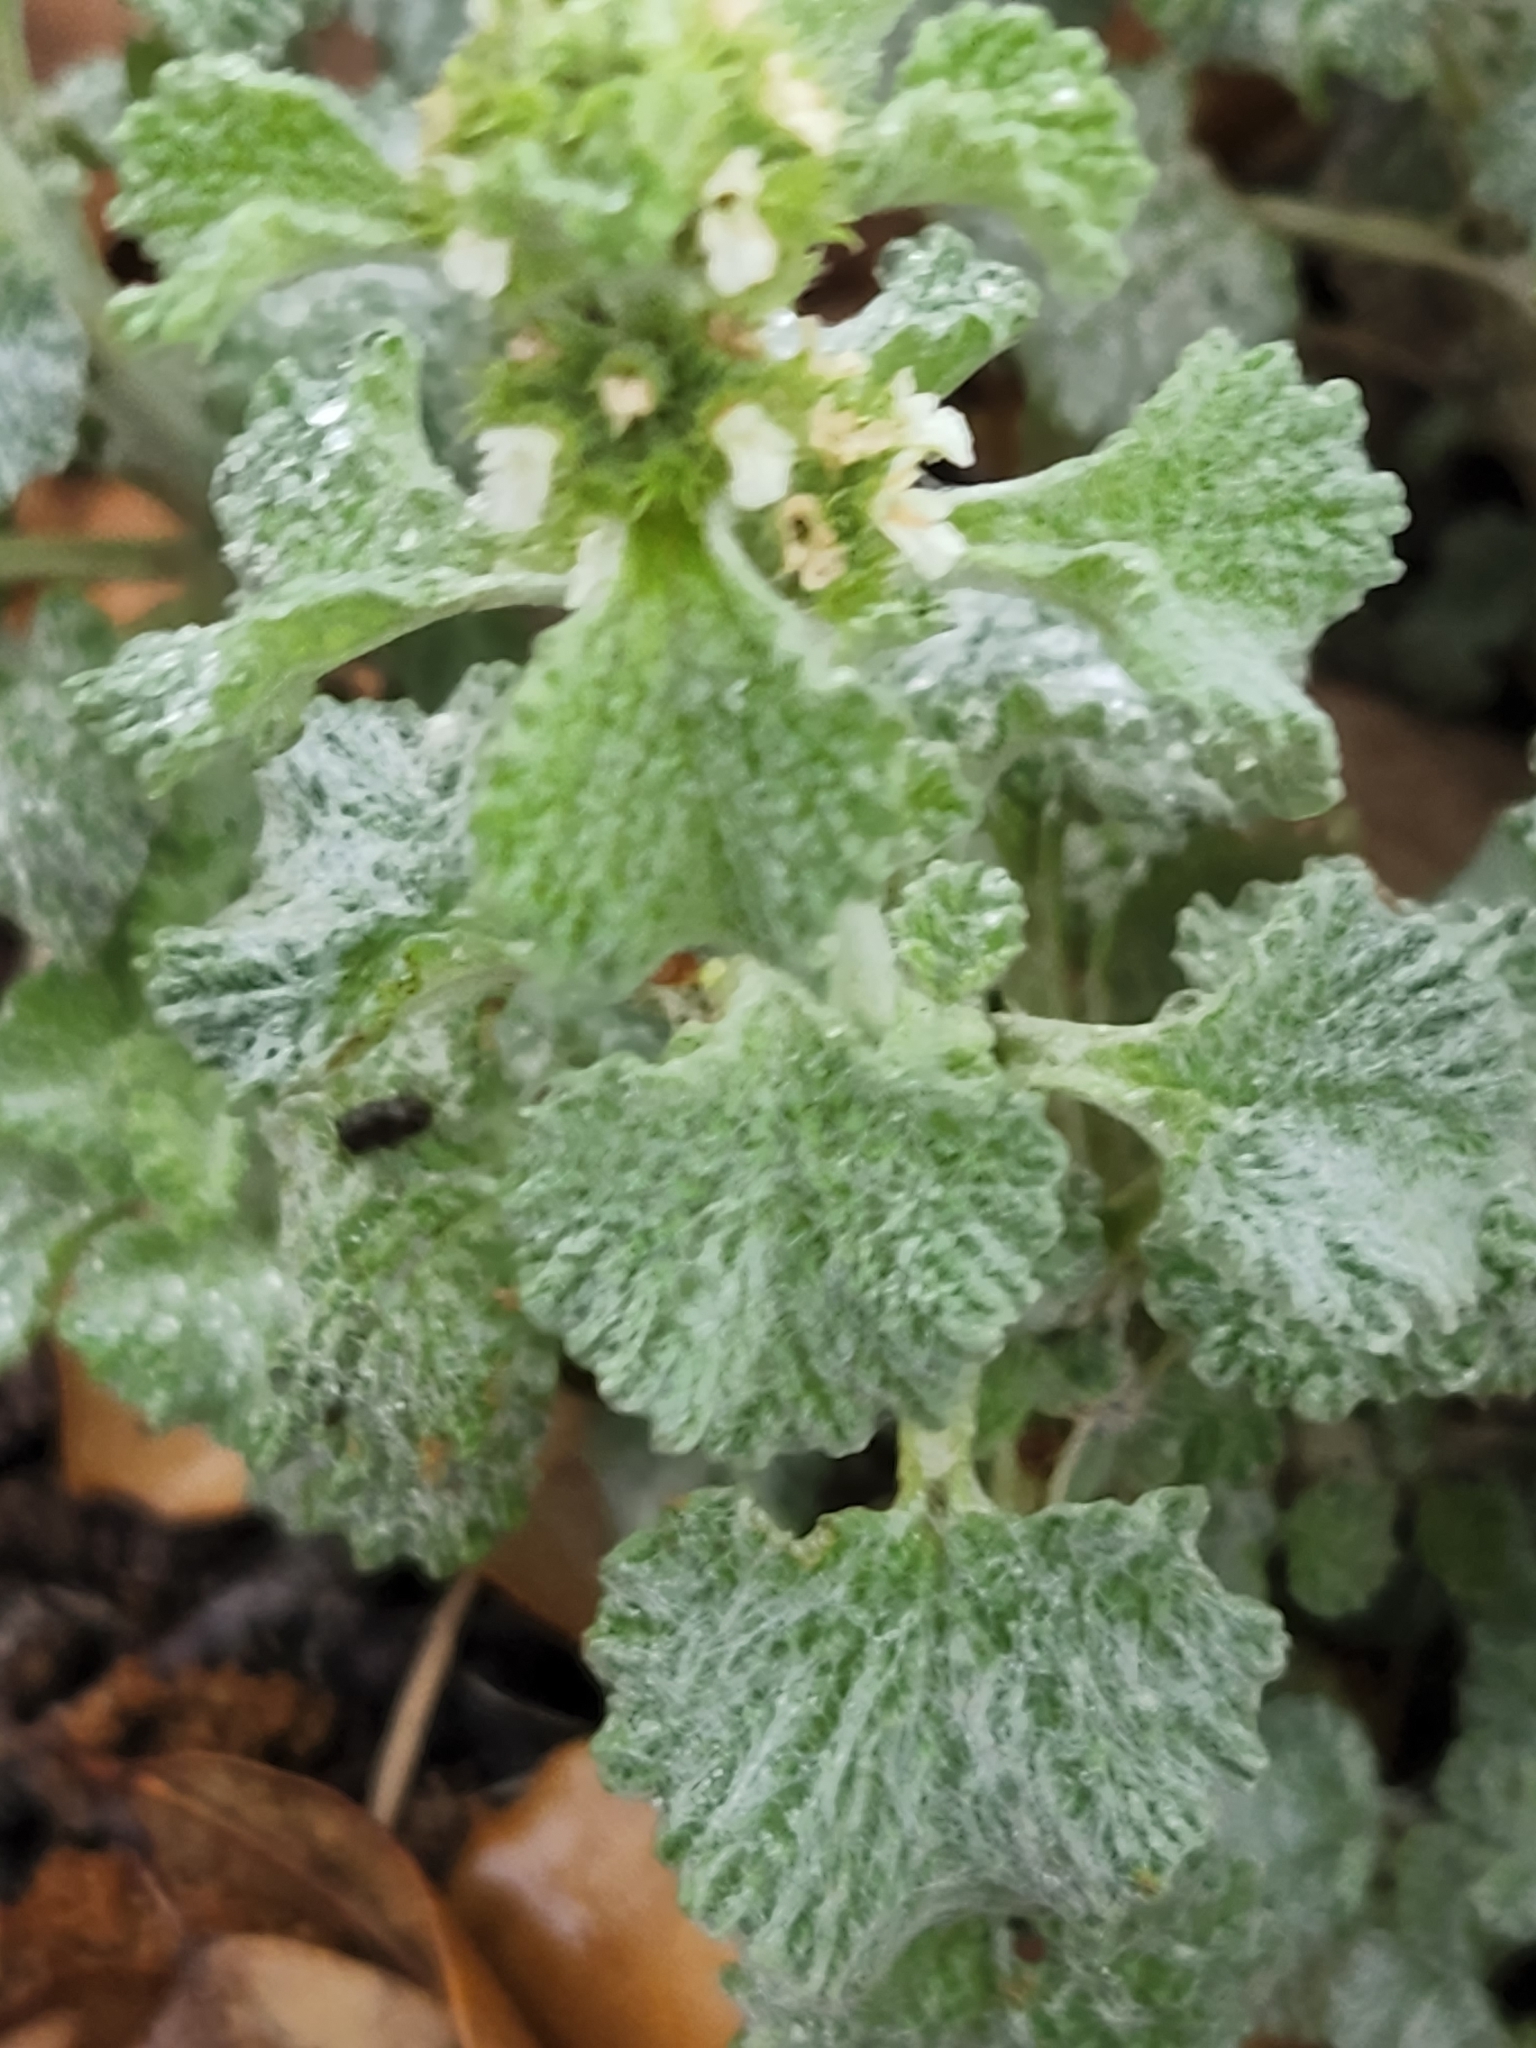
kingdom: Plantae
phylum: Tracheophyta
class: Magnoliopsida
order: Lamiales
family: Lamiaceae
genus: Marrubium
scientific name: Marrubium vulgare
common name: Horehound
